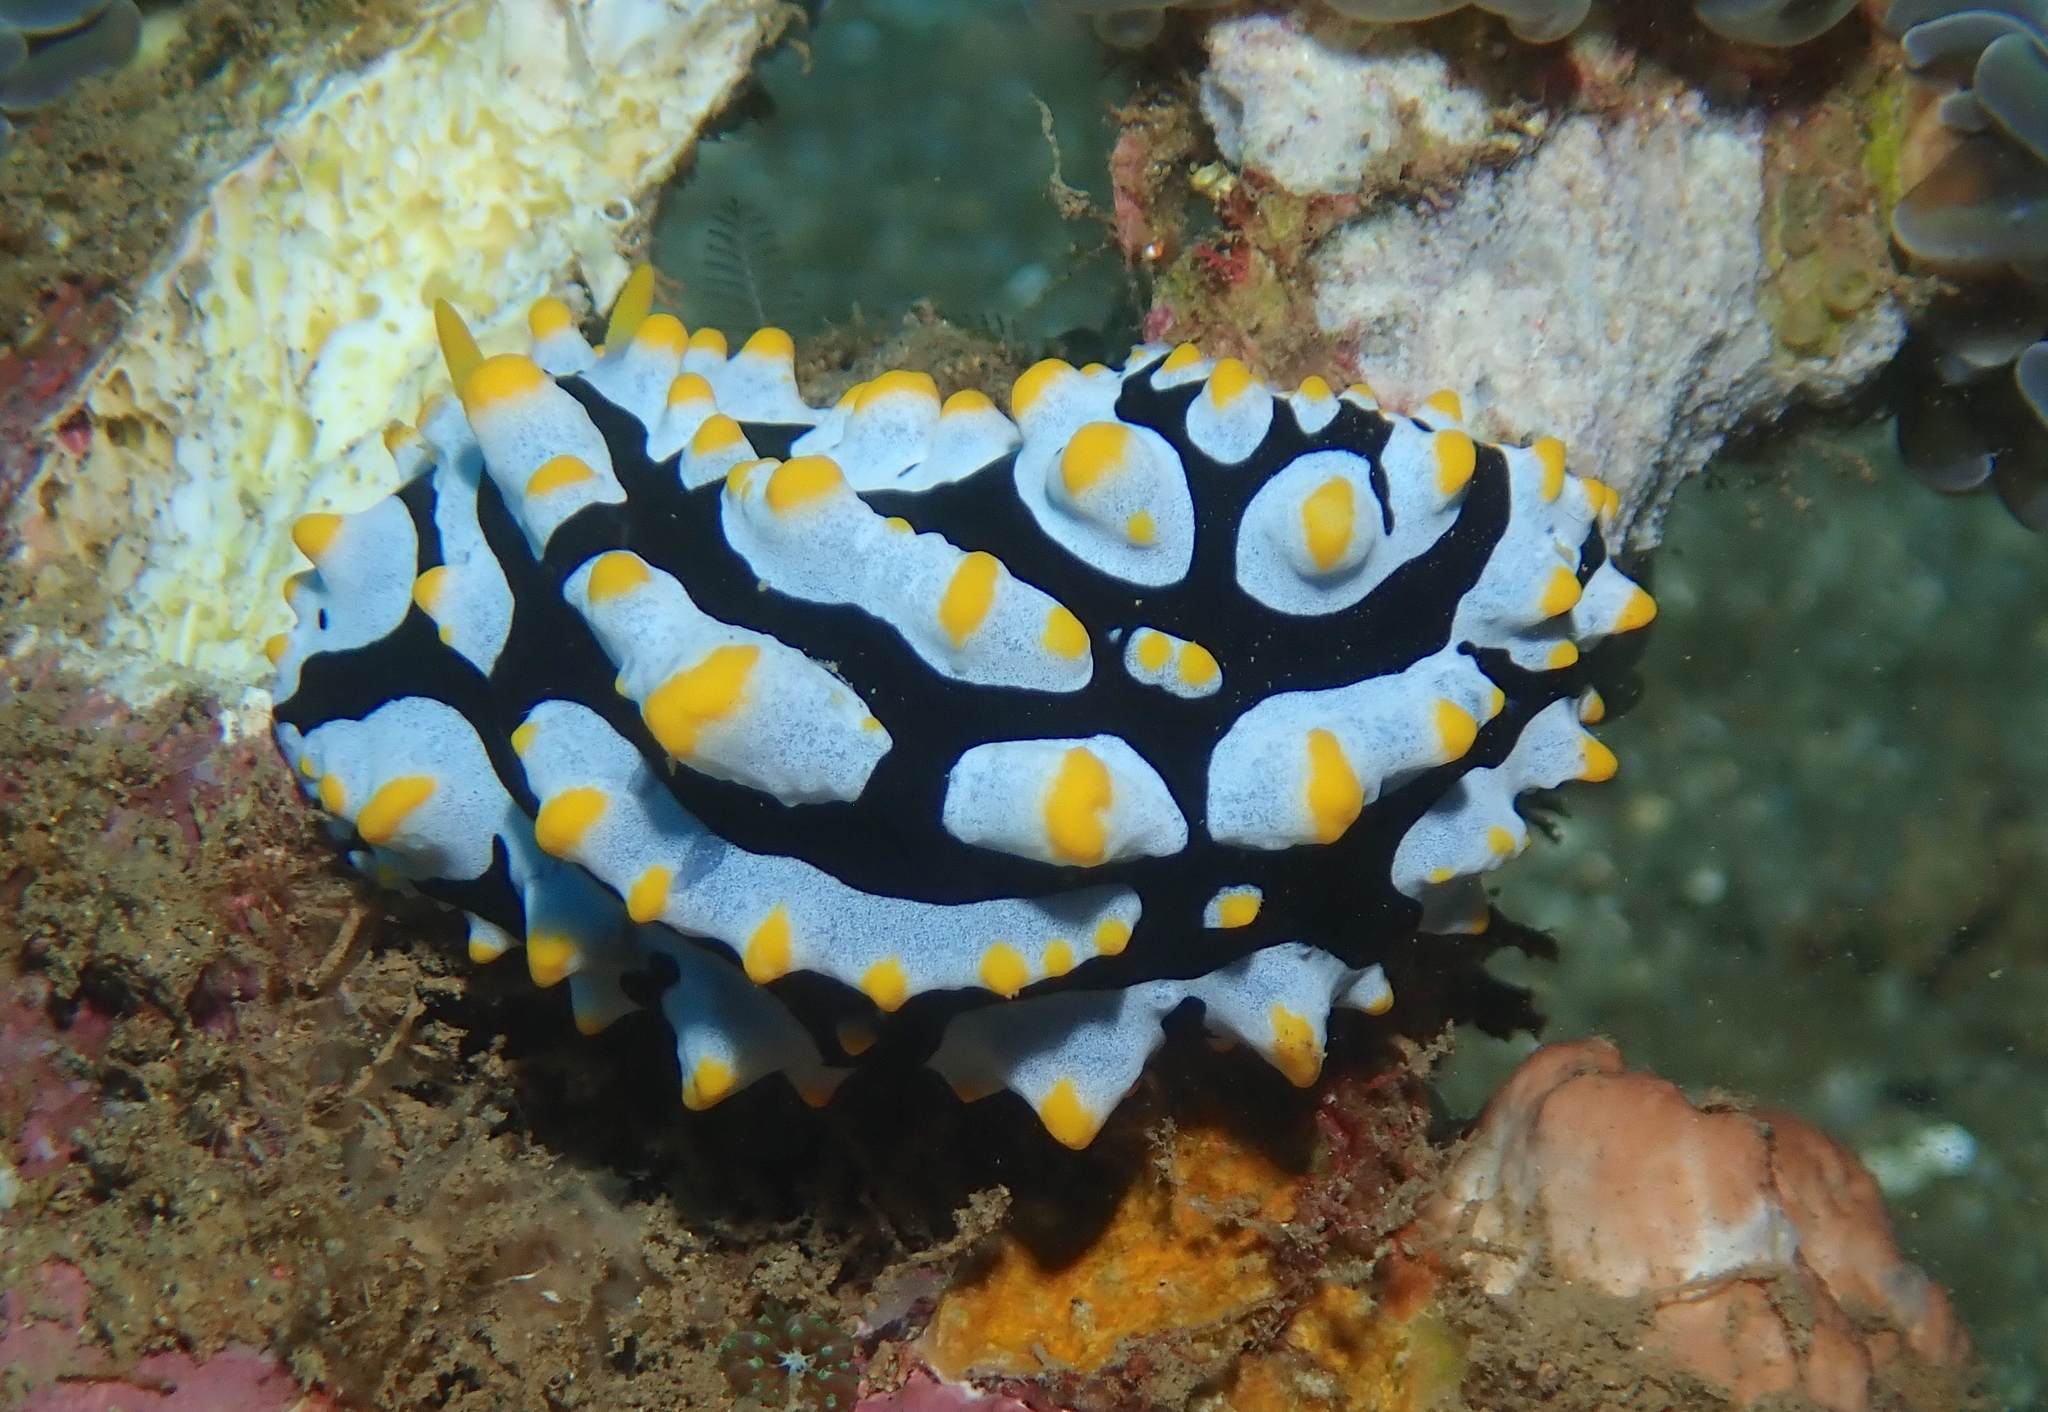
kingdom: Animalia
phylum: Mollusca
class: Gastropoda
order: Nudibranchia
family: Phyllidiidae
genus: Phyllidia
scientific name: Phyllidia varicosa
